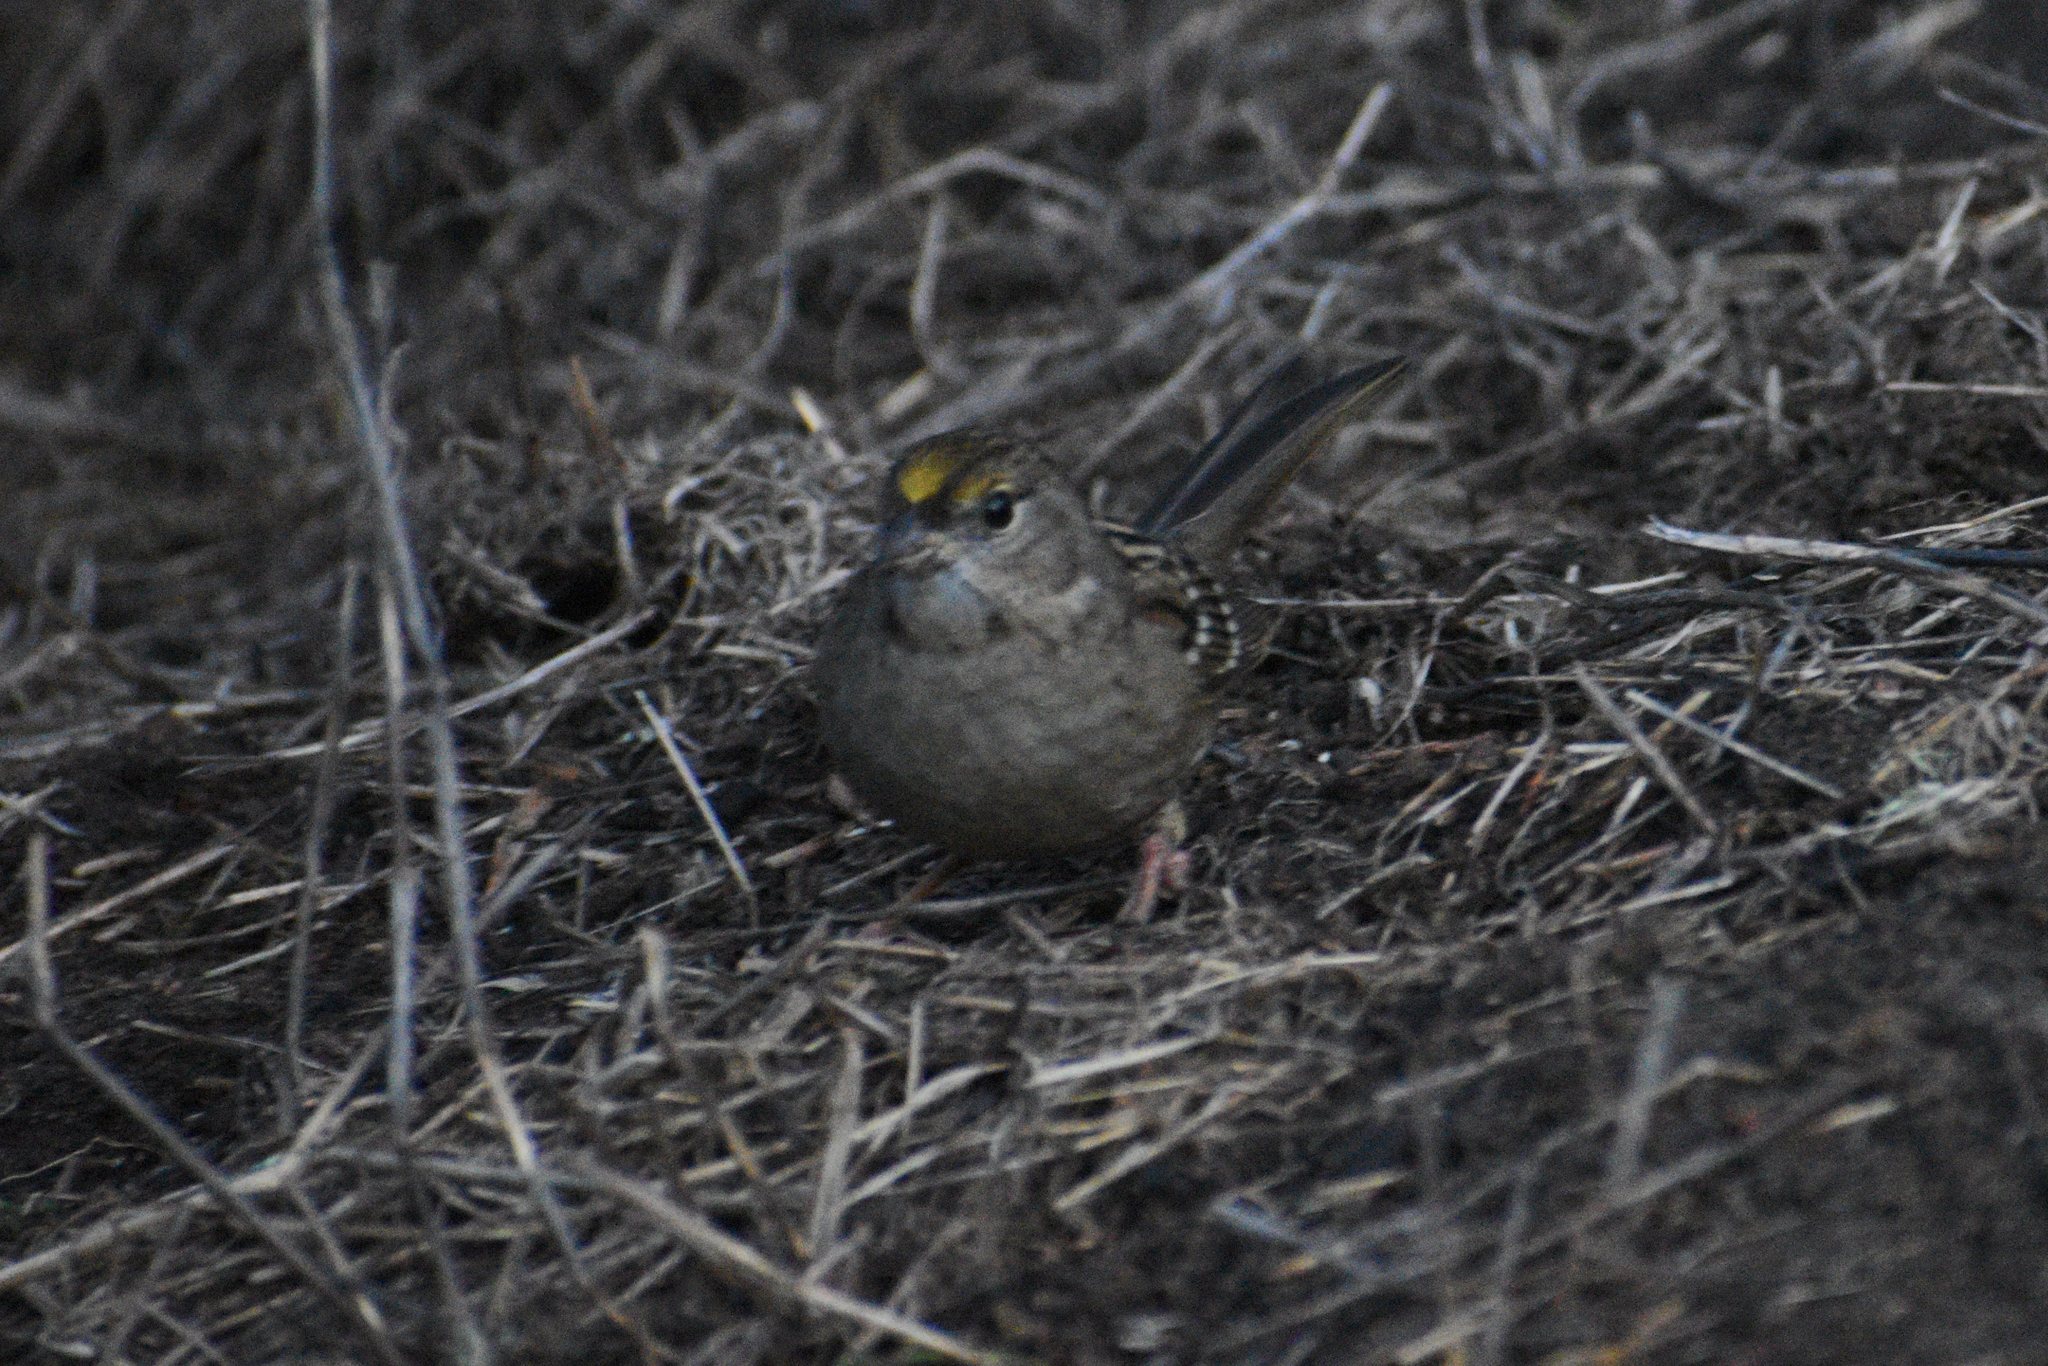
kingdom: Animalia
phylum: Chordata
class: Aves
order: Passeriformes
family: Passerellidae
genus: Zonotrichia
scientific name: Zonotrichia atricapilla
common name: Golden-crowned sparrow
